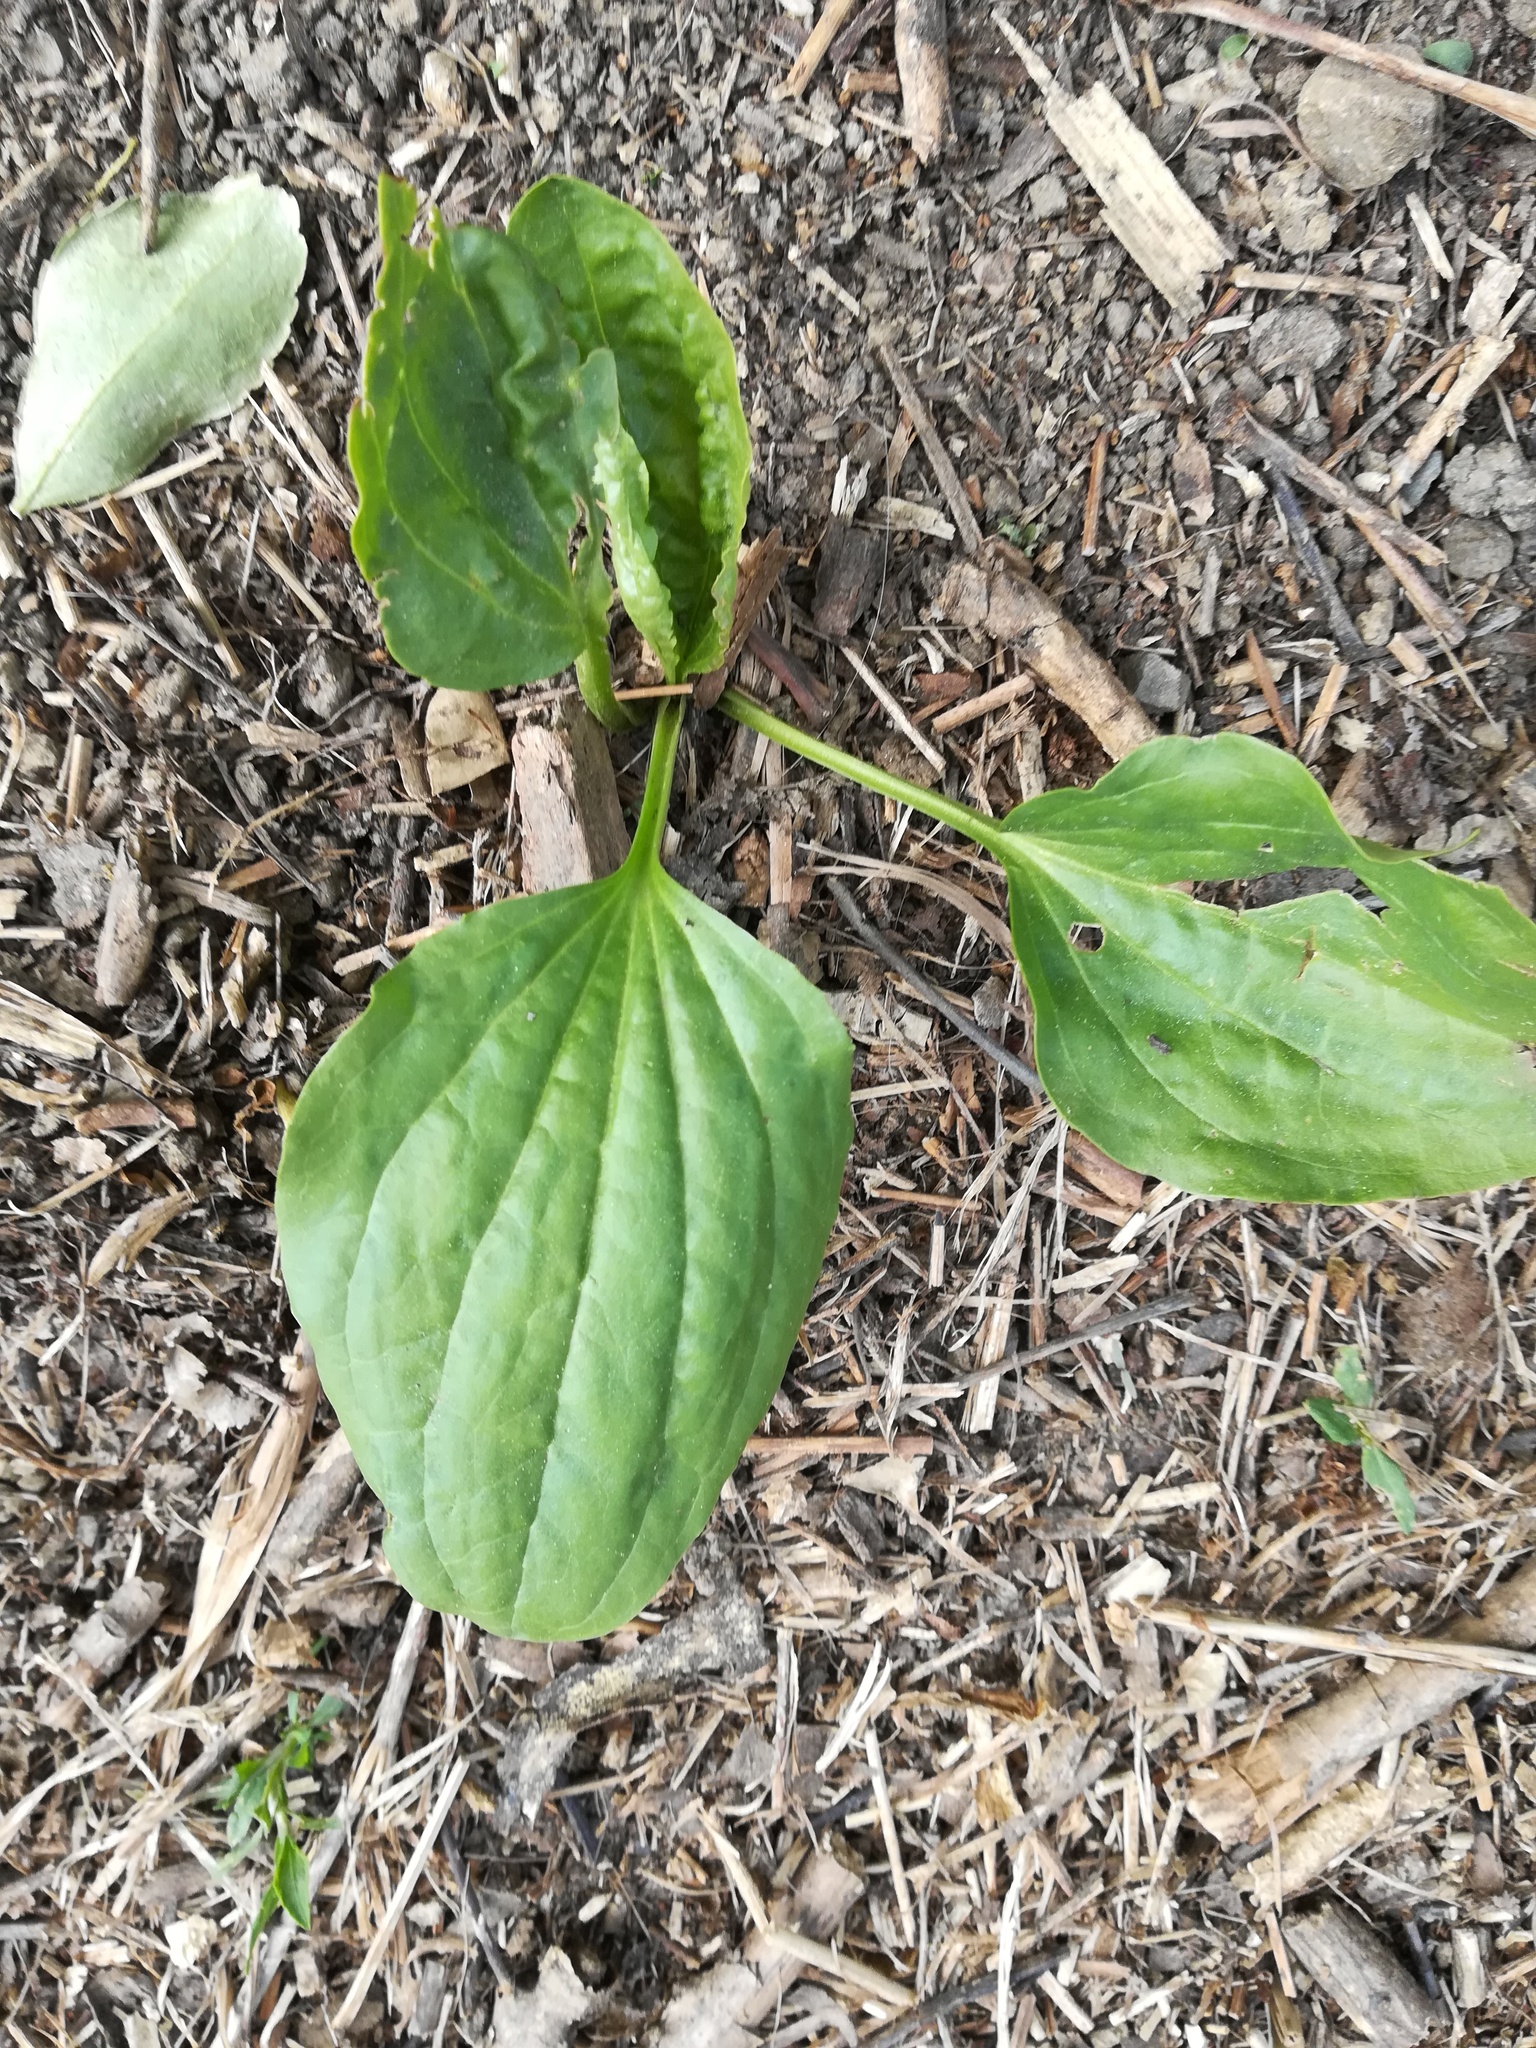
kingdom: Plantae
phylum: Tracheophyta
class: Magnoliopsida
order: Lamiales
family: Plantaginaceae
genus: Plantago
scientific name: Plantago major
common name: Common plantain
